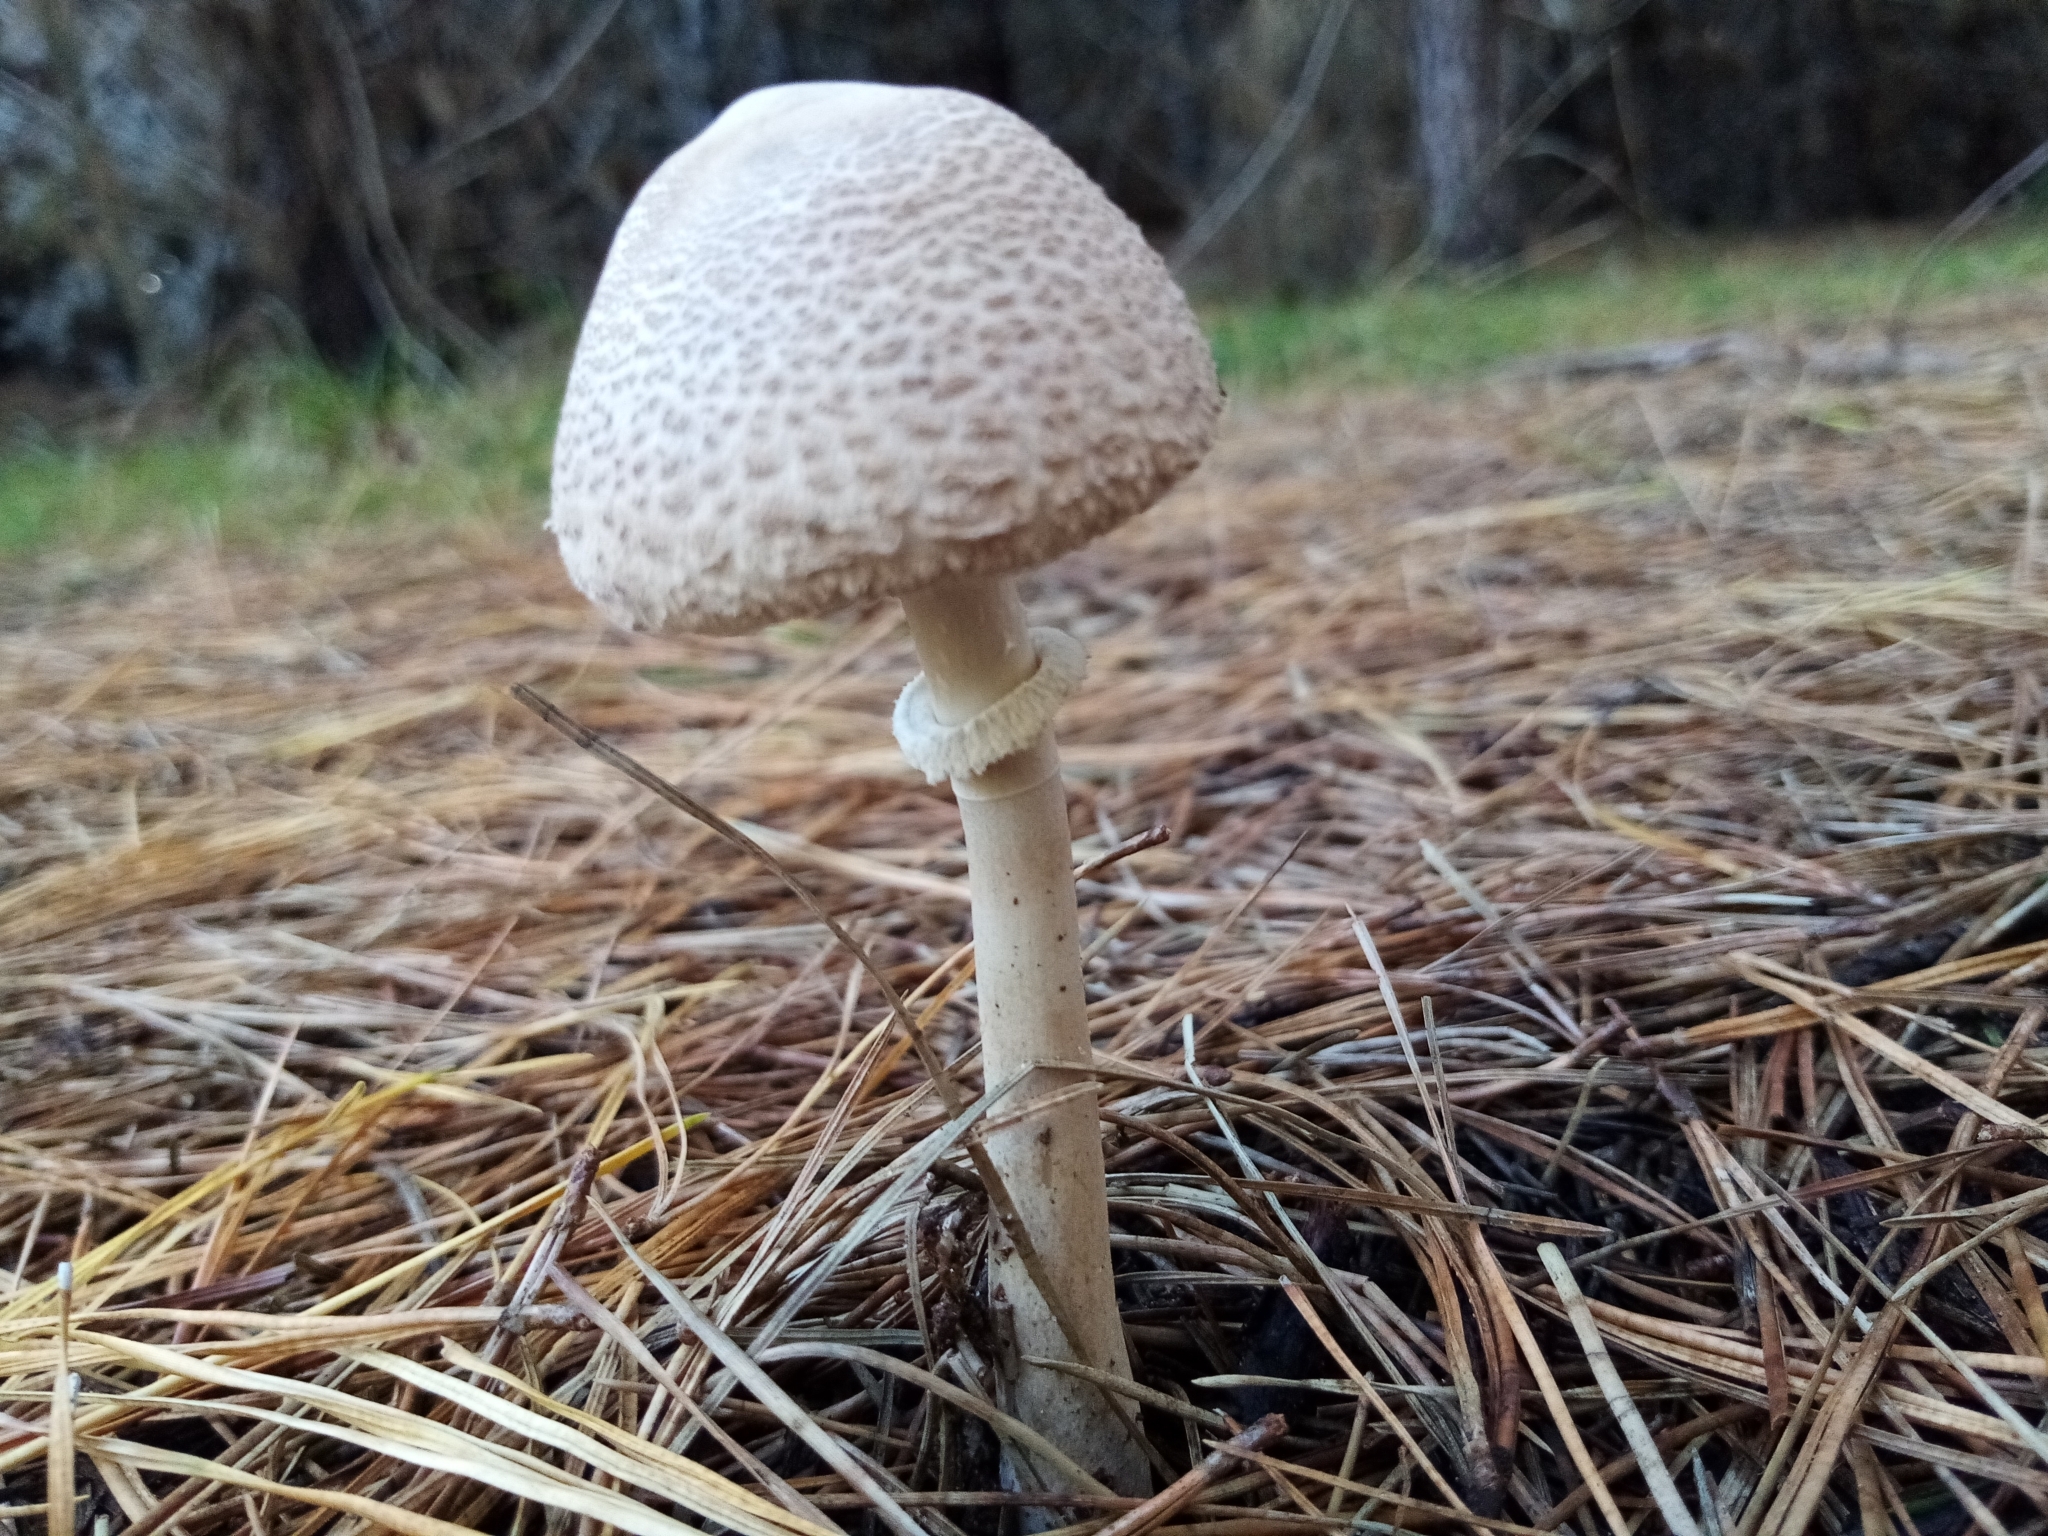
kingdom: Fungi
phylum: Basidiomycota
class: Agaricomycetes
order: Agaricales
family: Agaricaceae
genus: Macrolepiota
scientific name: Macrolepiota clelandii
